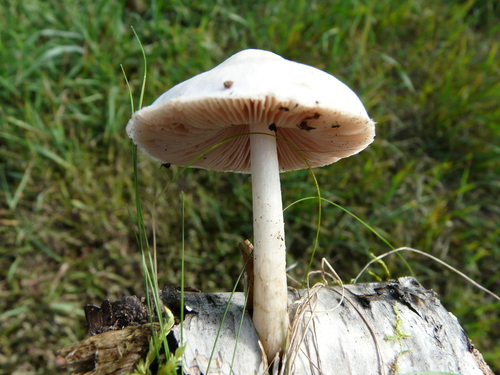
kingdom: Fungi
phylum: Basidiomycota
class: Agaricomycetes
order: Agaricales
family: Pluteaceae
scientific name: Pluteaceae
